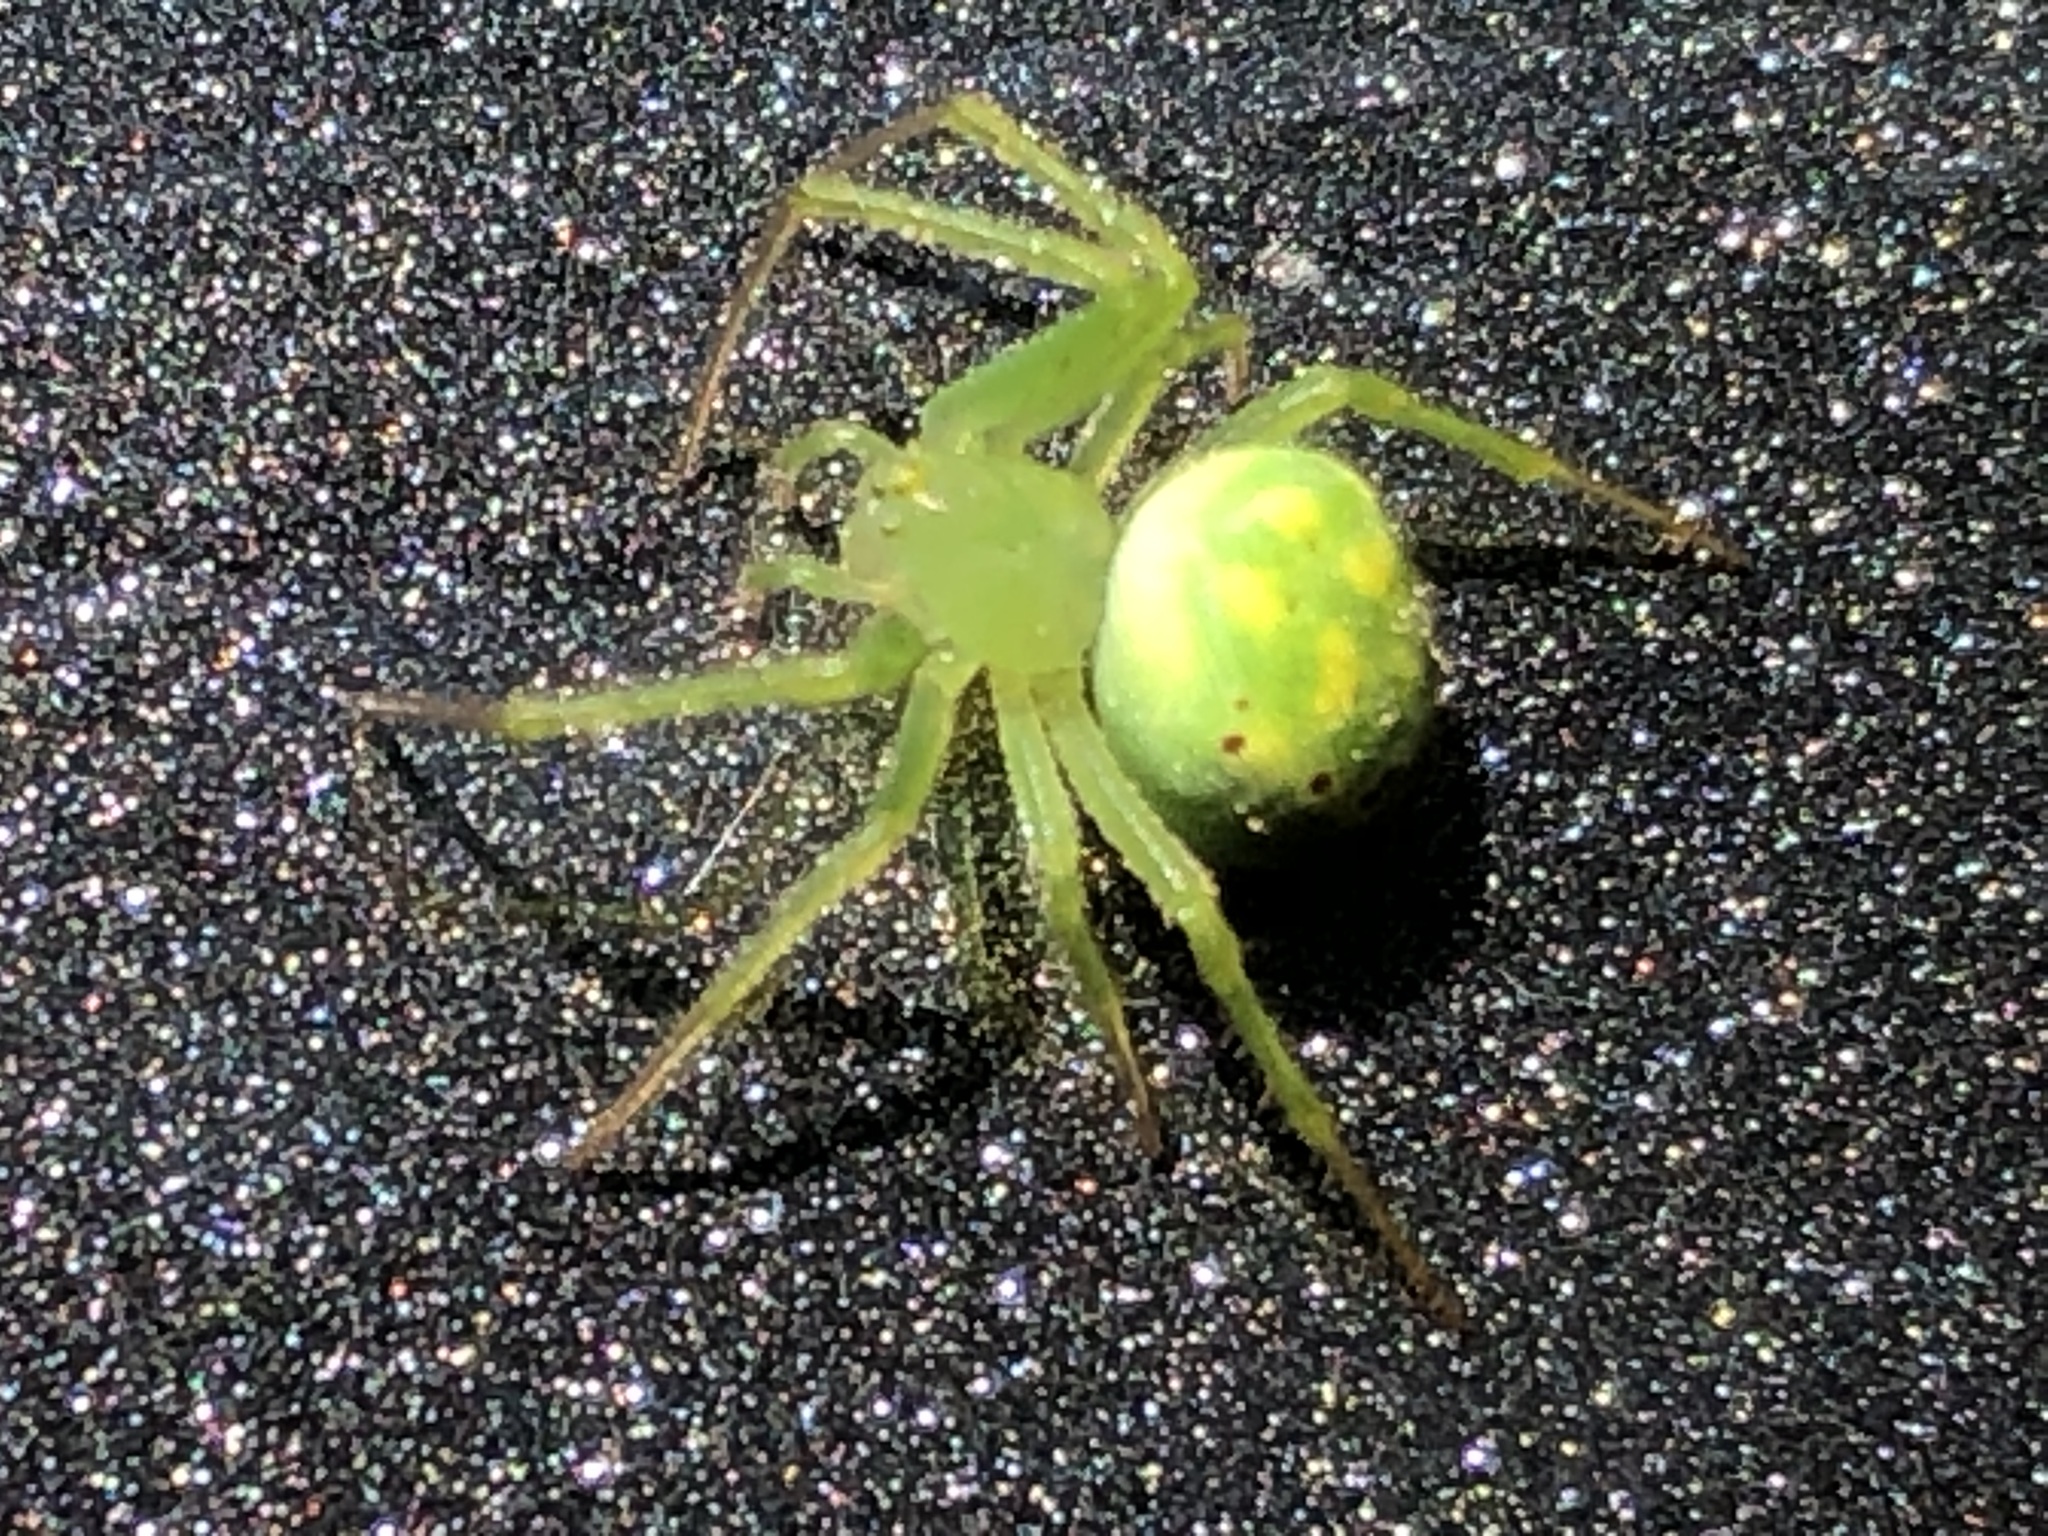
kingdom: Animalia
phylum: Arthropoda
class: Arachnida
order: Araneae
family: Araneidae
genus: Araneus
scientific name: Araneus cingulatus
